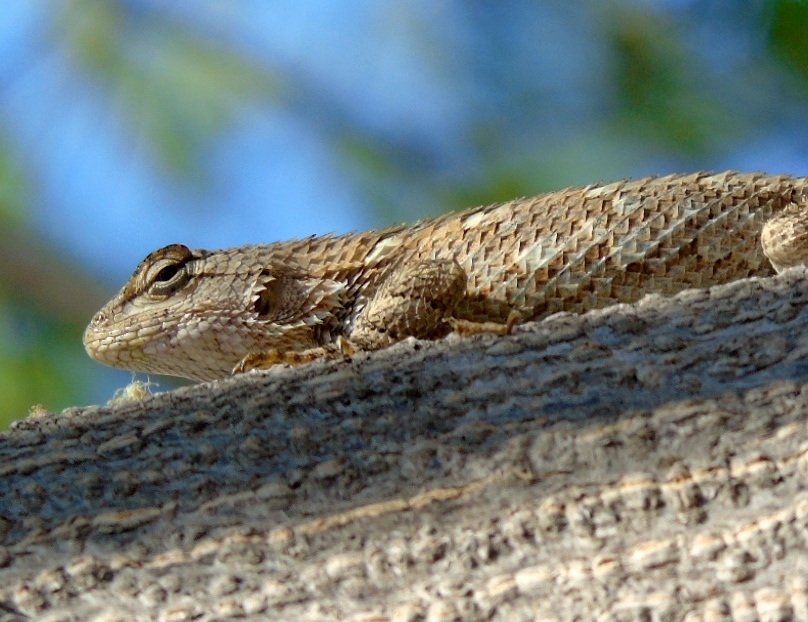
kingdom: Animalia
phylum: Chordata
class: Squamata
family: Phrynosomatidae
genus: Sceloporus
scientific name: Sceloporus clarkii
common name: Clark's spiny lizard
